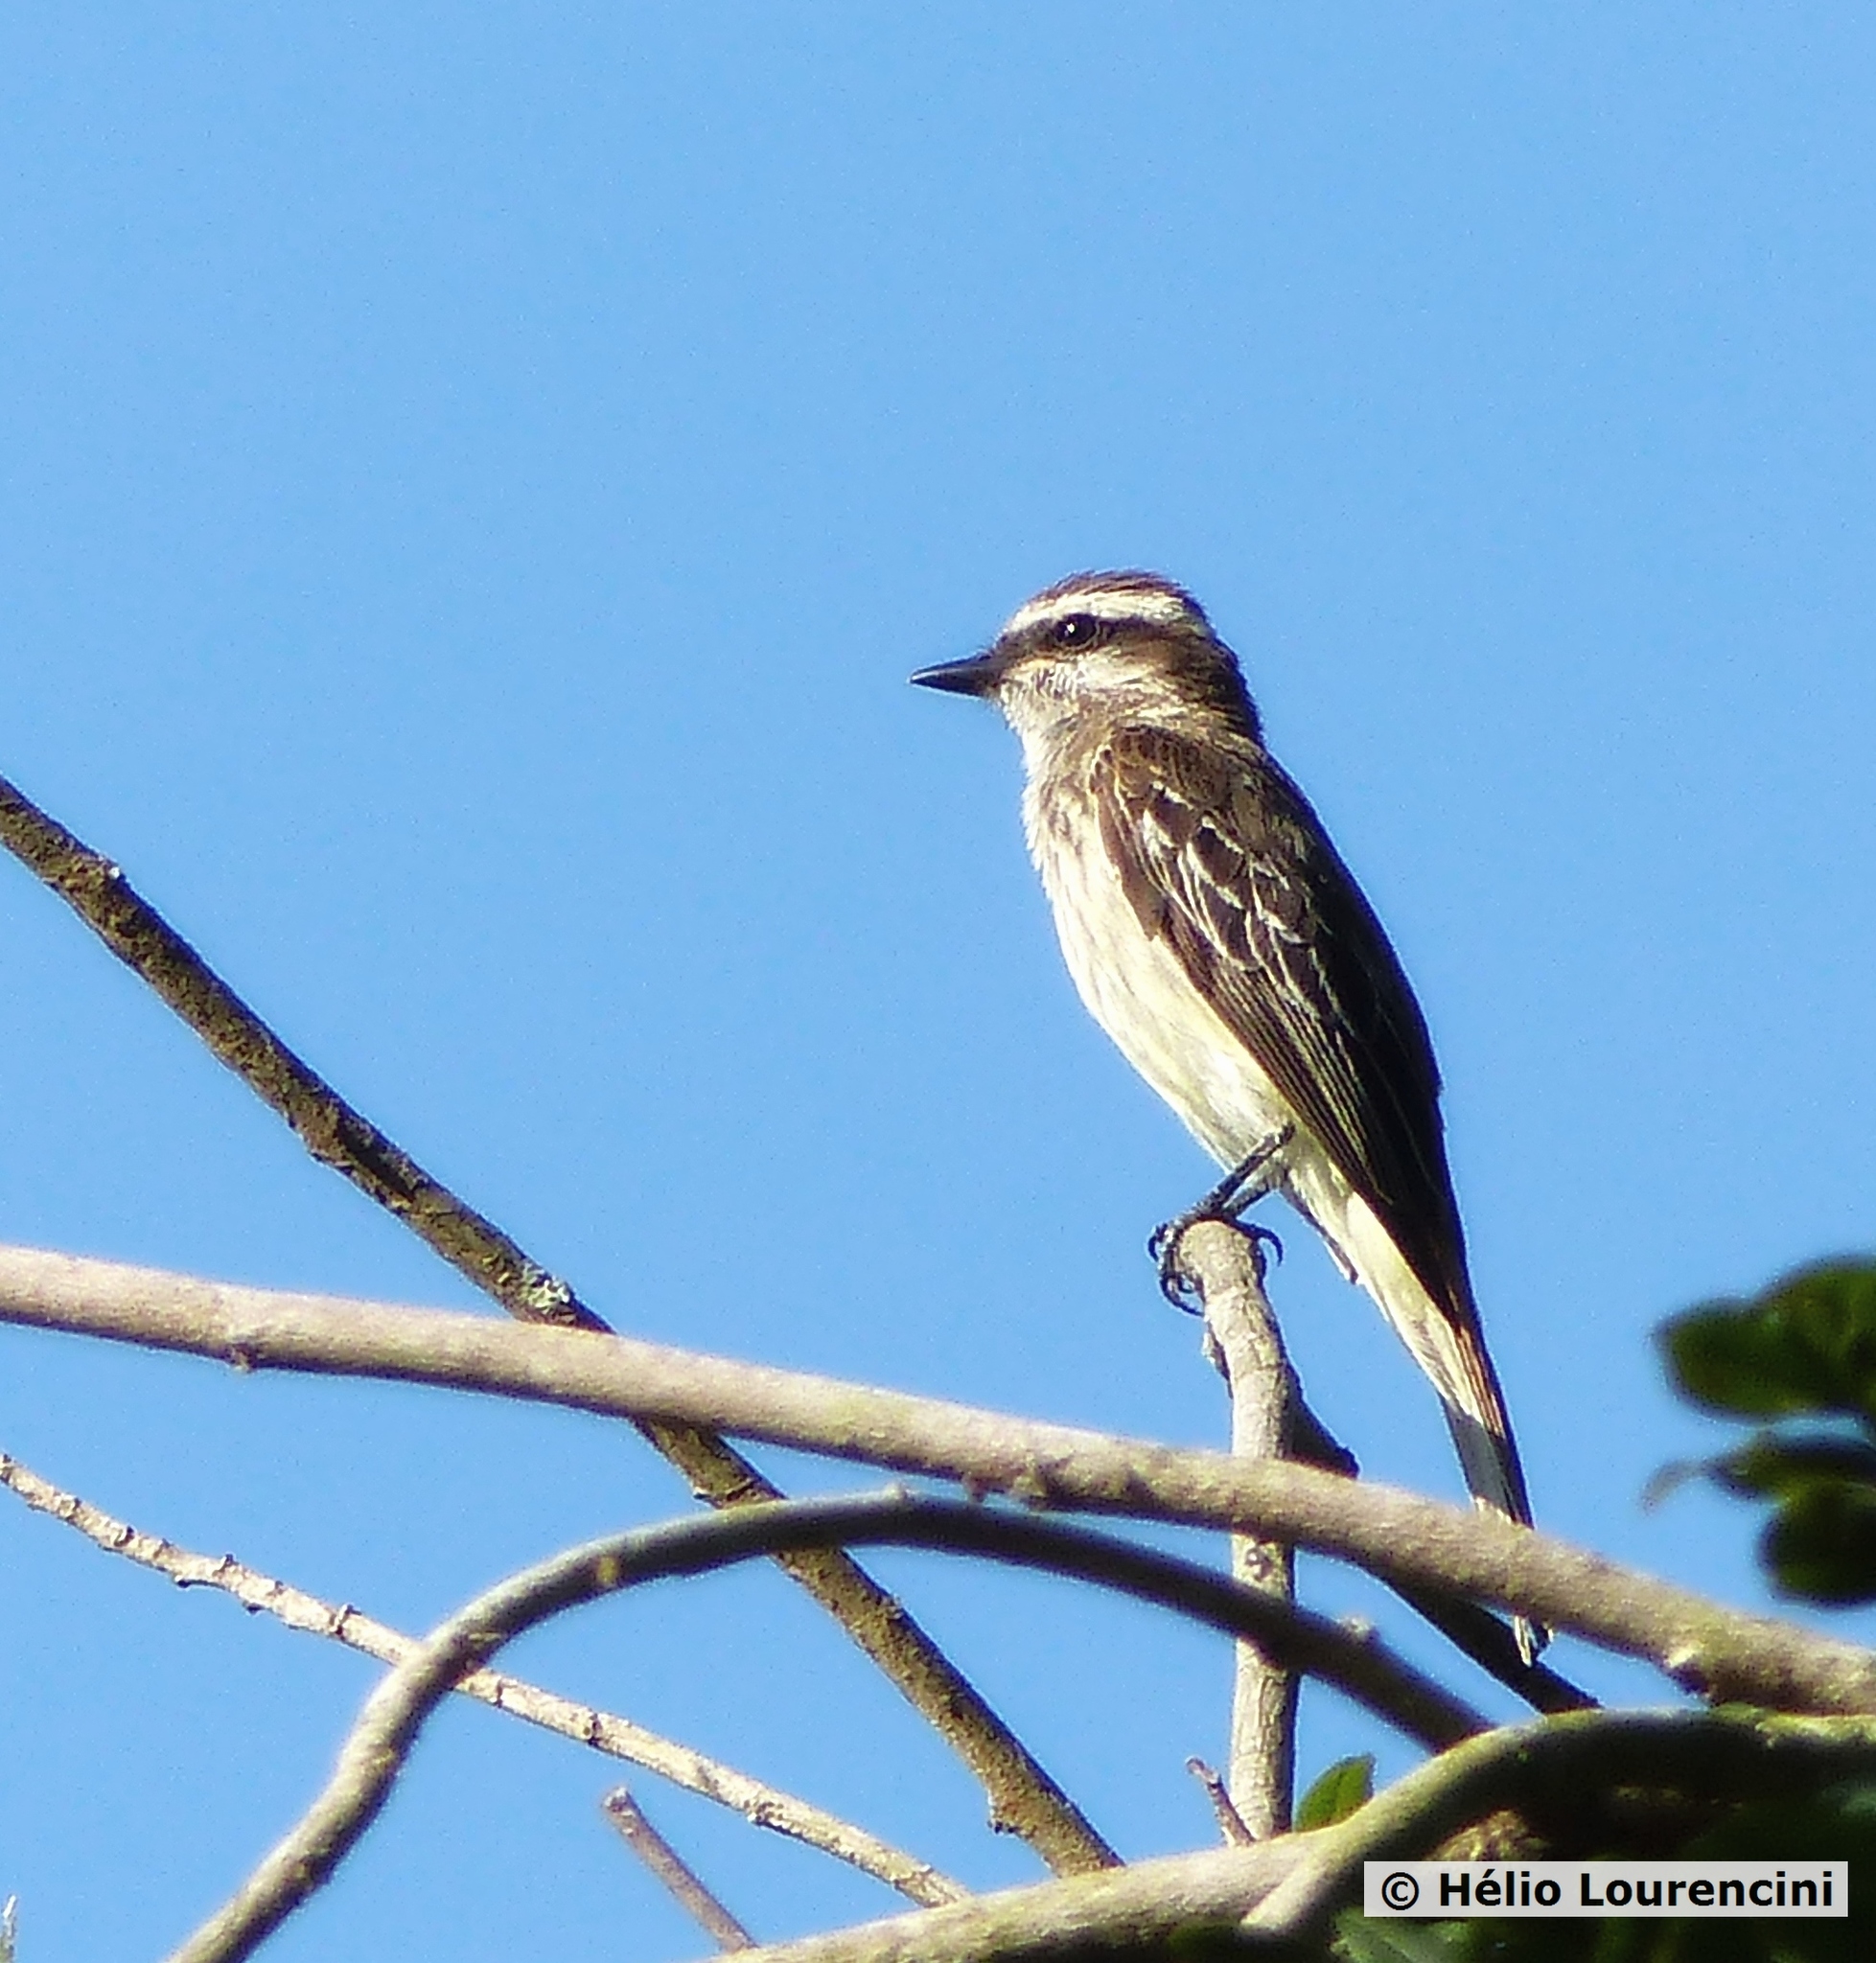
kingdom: Animalia
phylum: Chordata
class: Aves
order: Passeriformes
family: Tyrannidae
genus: Empidonomus
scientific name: Empidonomus varius
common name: Variegated flycatcher
